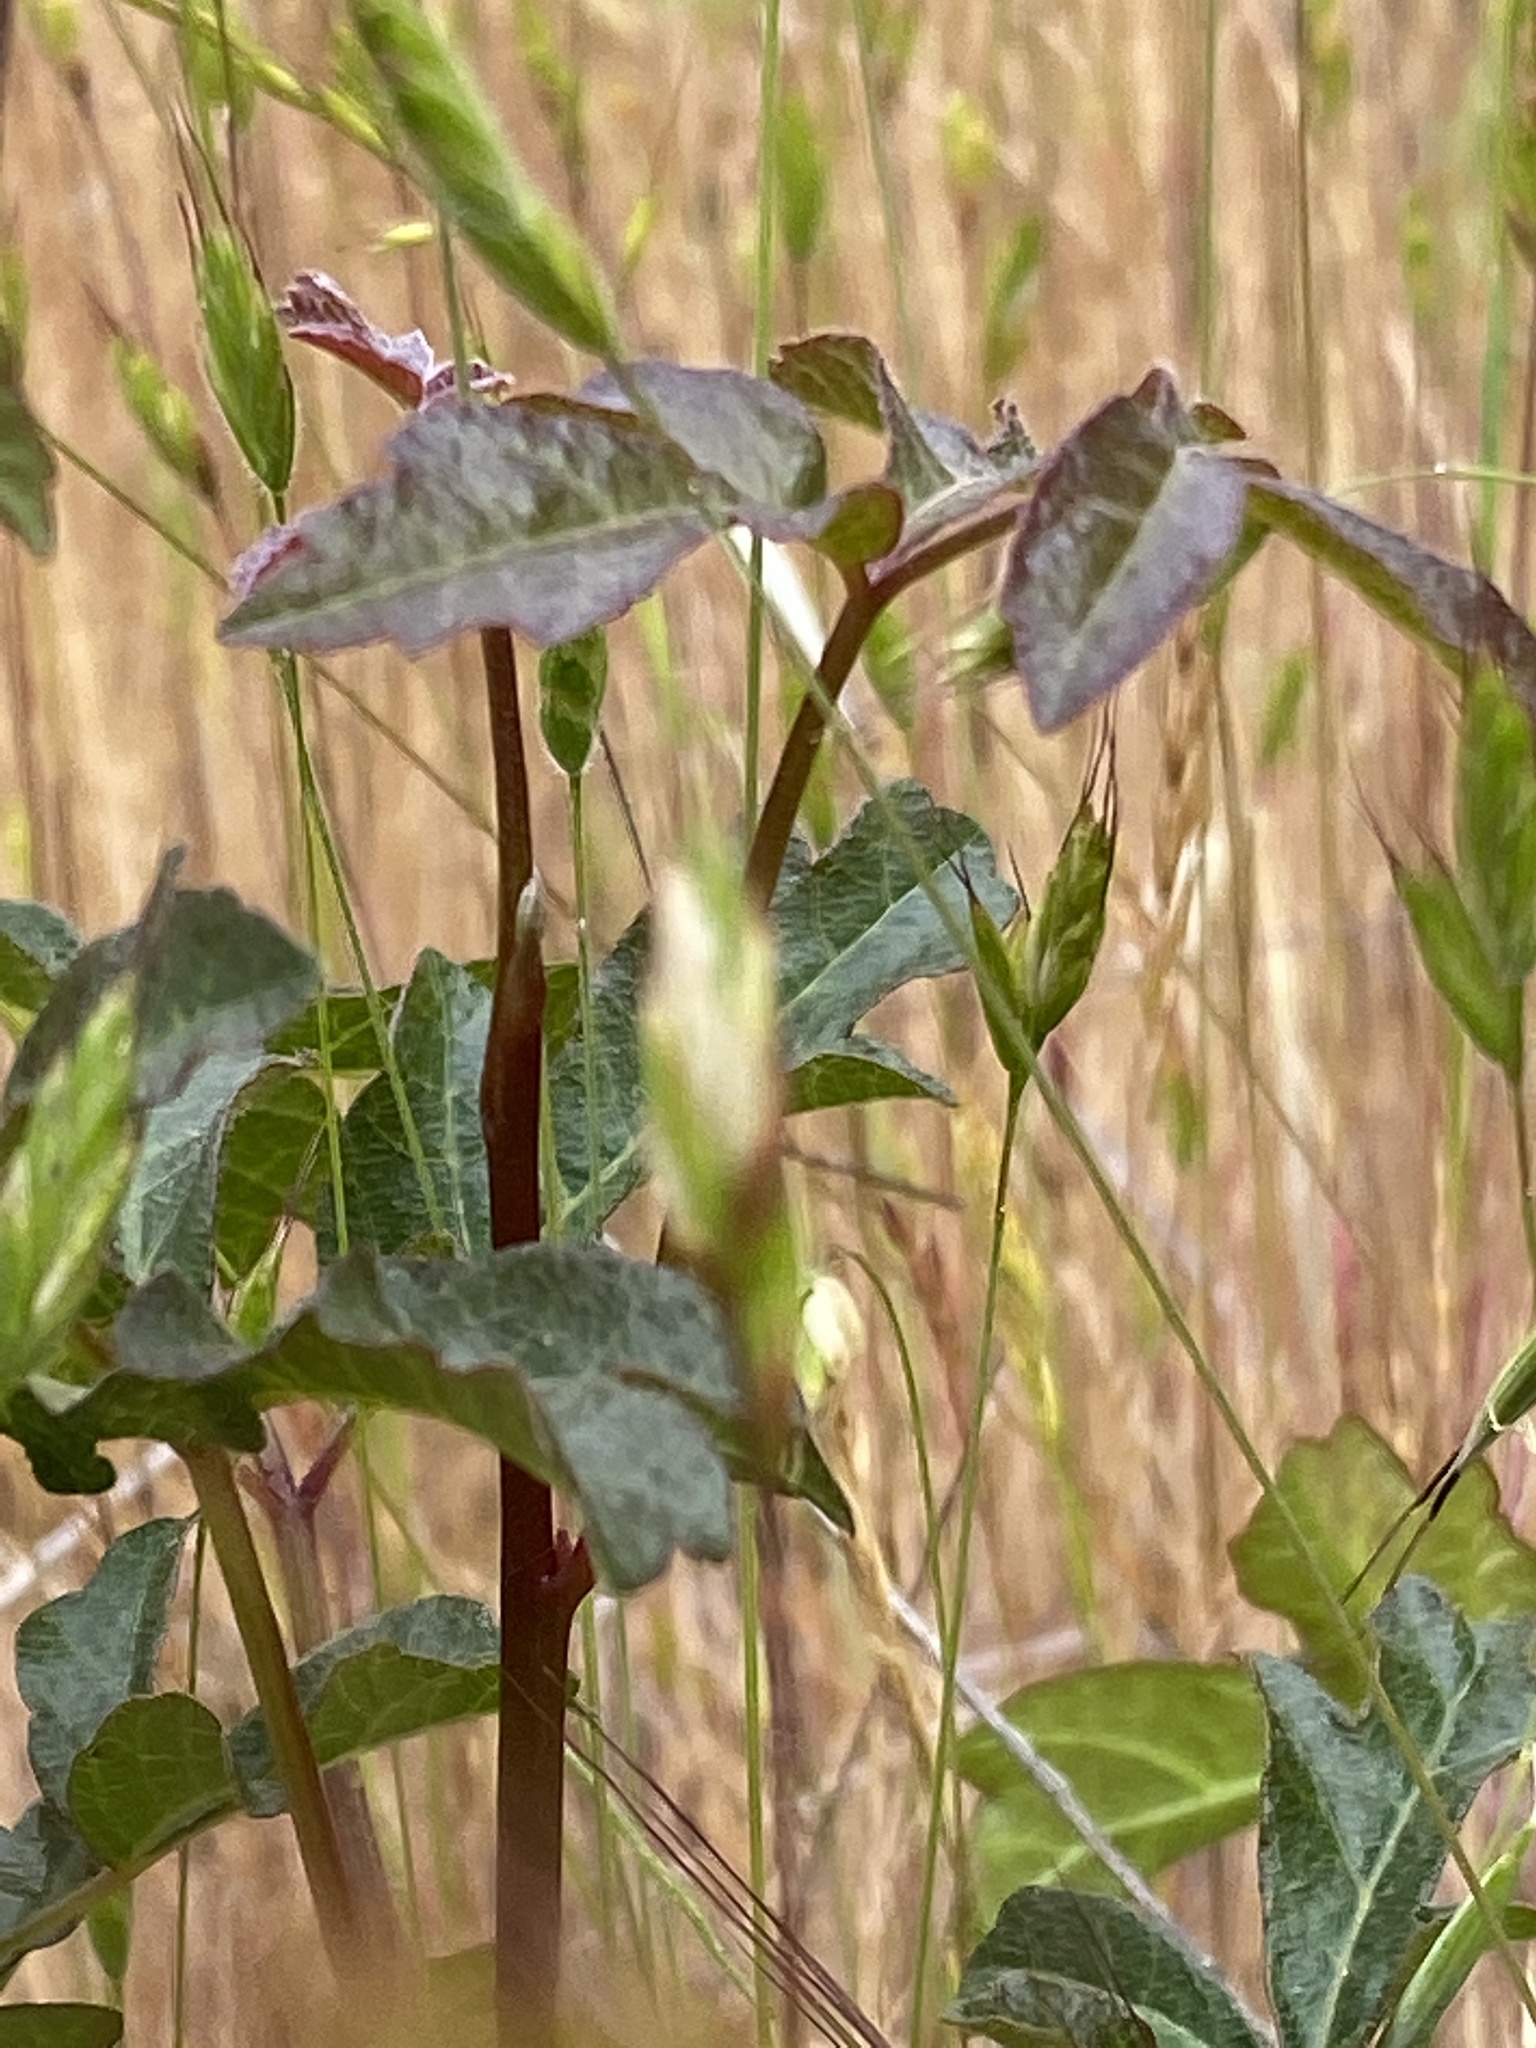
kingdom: Plantae
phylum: Tracheophyta
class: Magnoliopsida
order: Sapindales
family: Anacardiaceae
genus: Toxicodendron
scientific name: Toxicodendron diversilobum
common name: Pacific poison-oak
